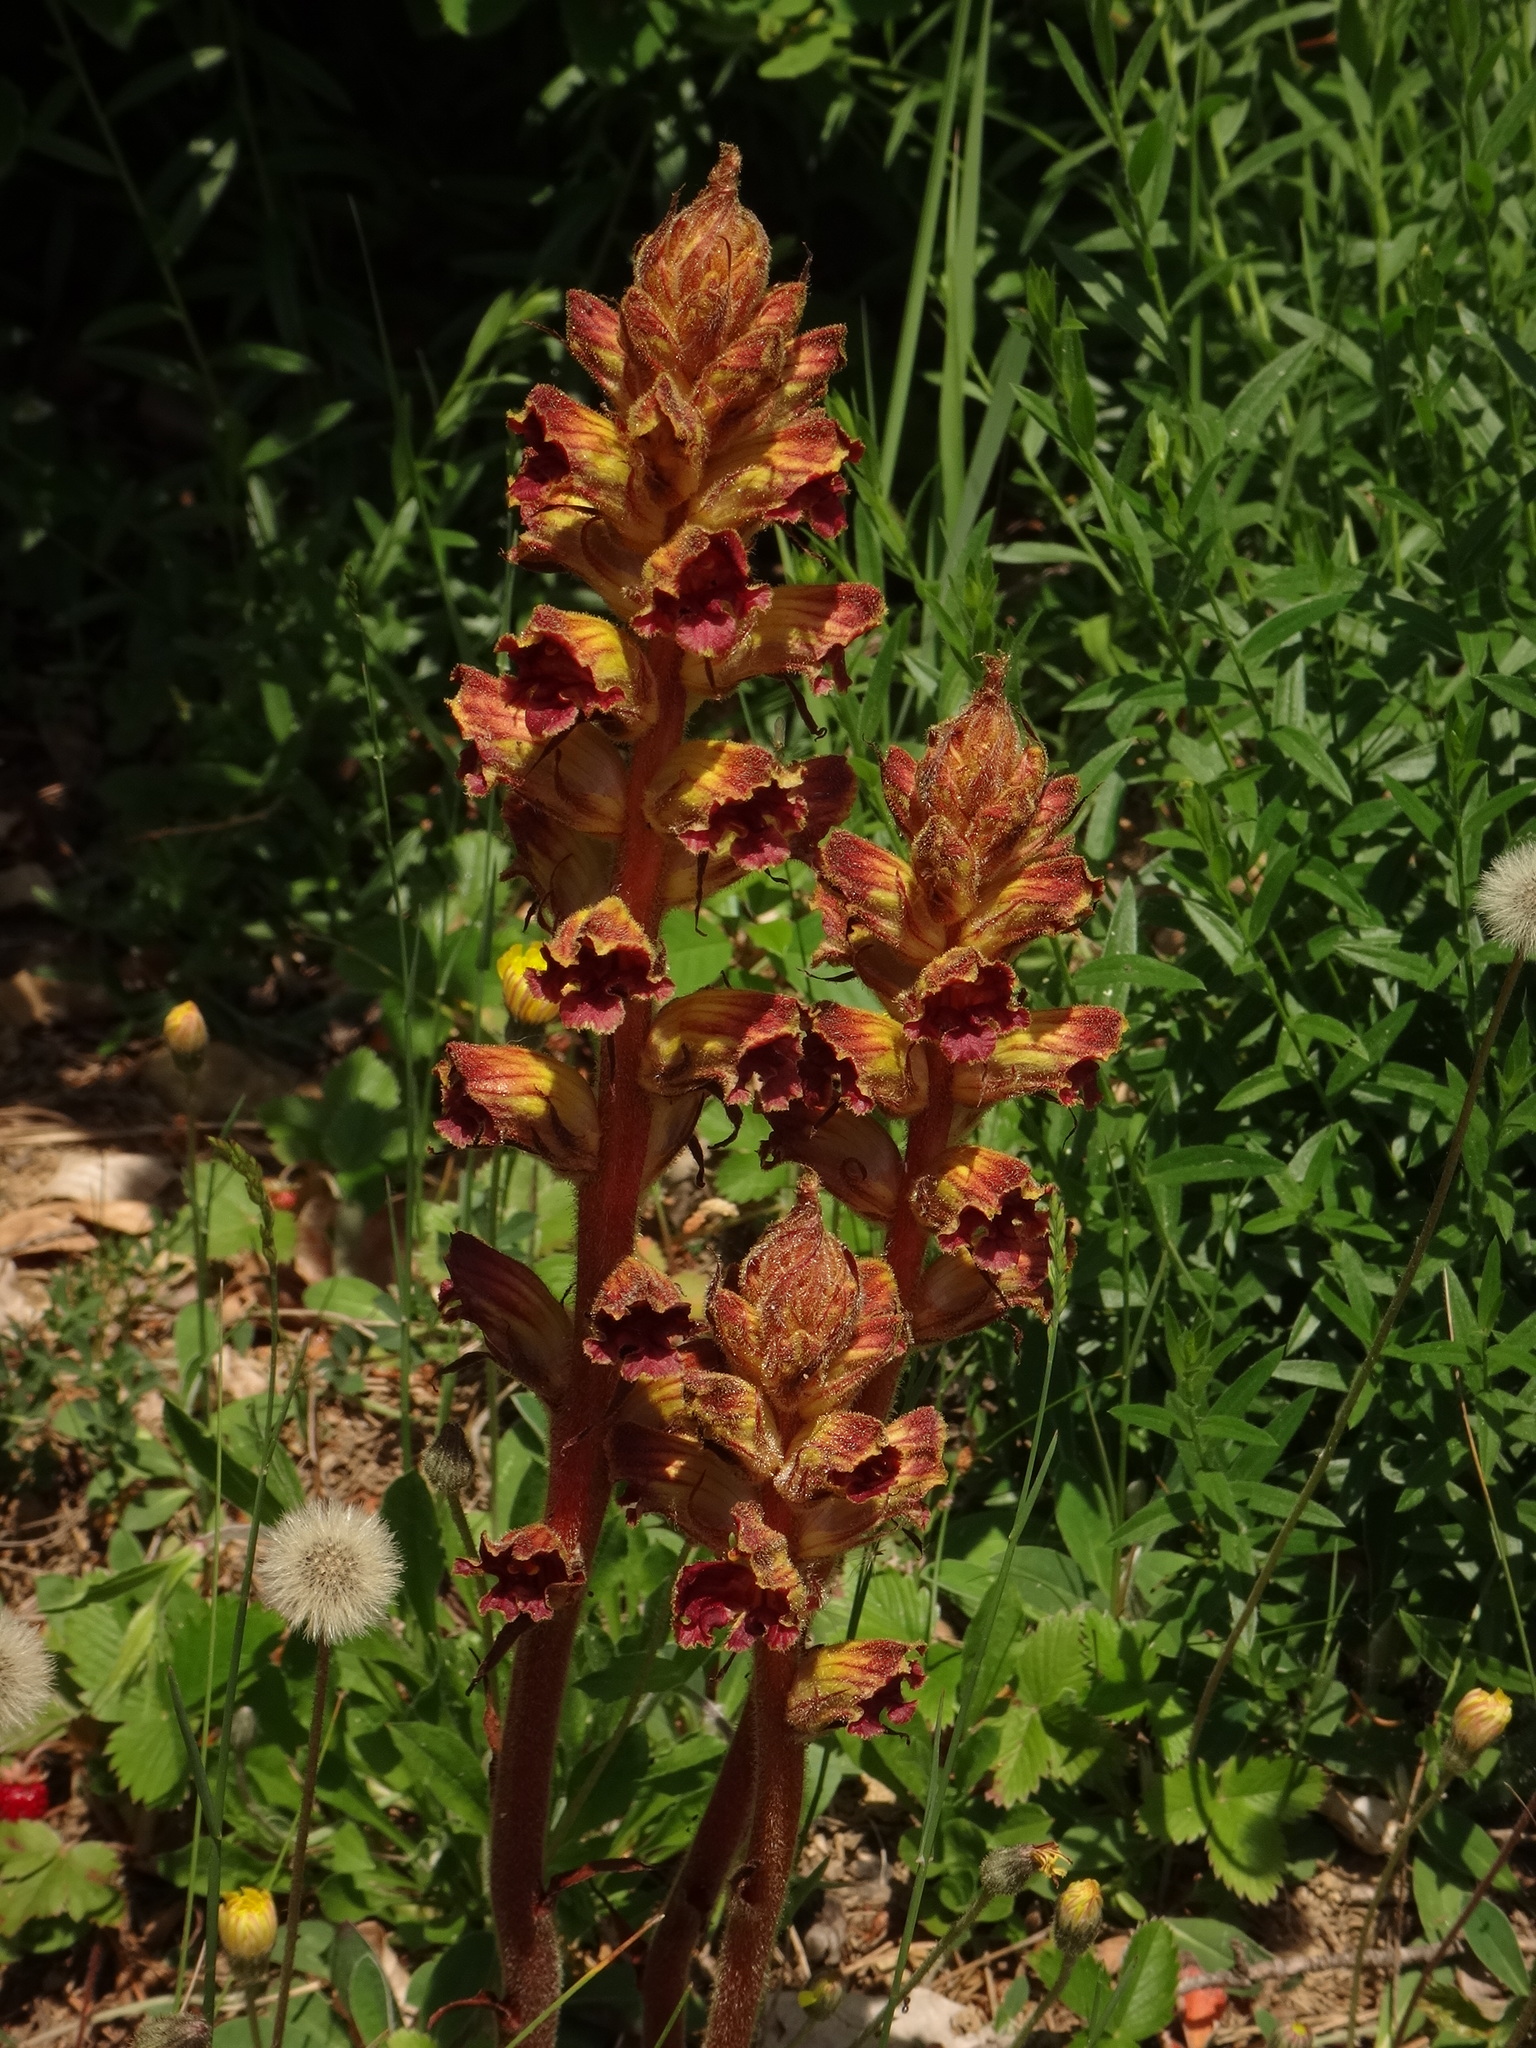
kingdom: Plantae
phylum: Tracheophyta
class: Magnoliopsida
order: Lamiales
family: Orobanchaceae
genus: Orobanche
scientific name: Orobanche gracilis
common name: Slender broomrape
